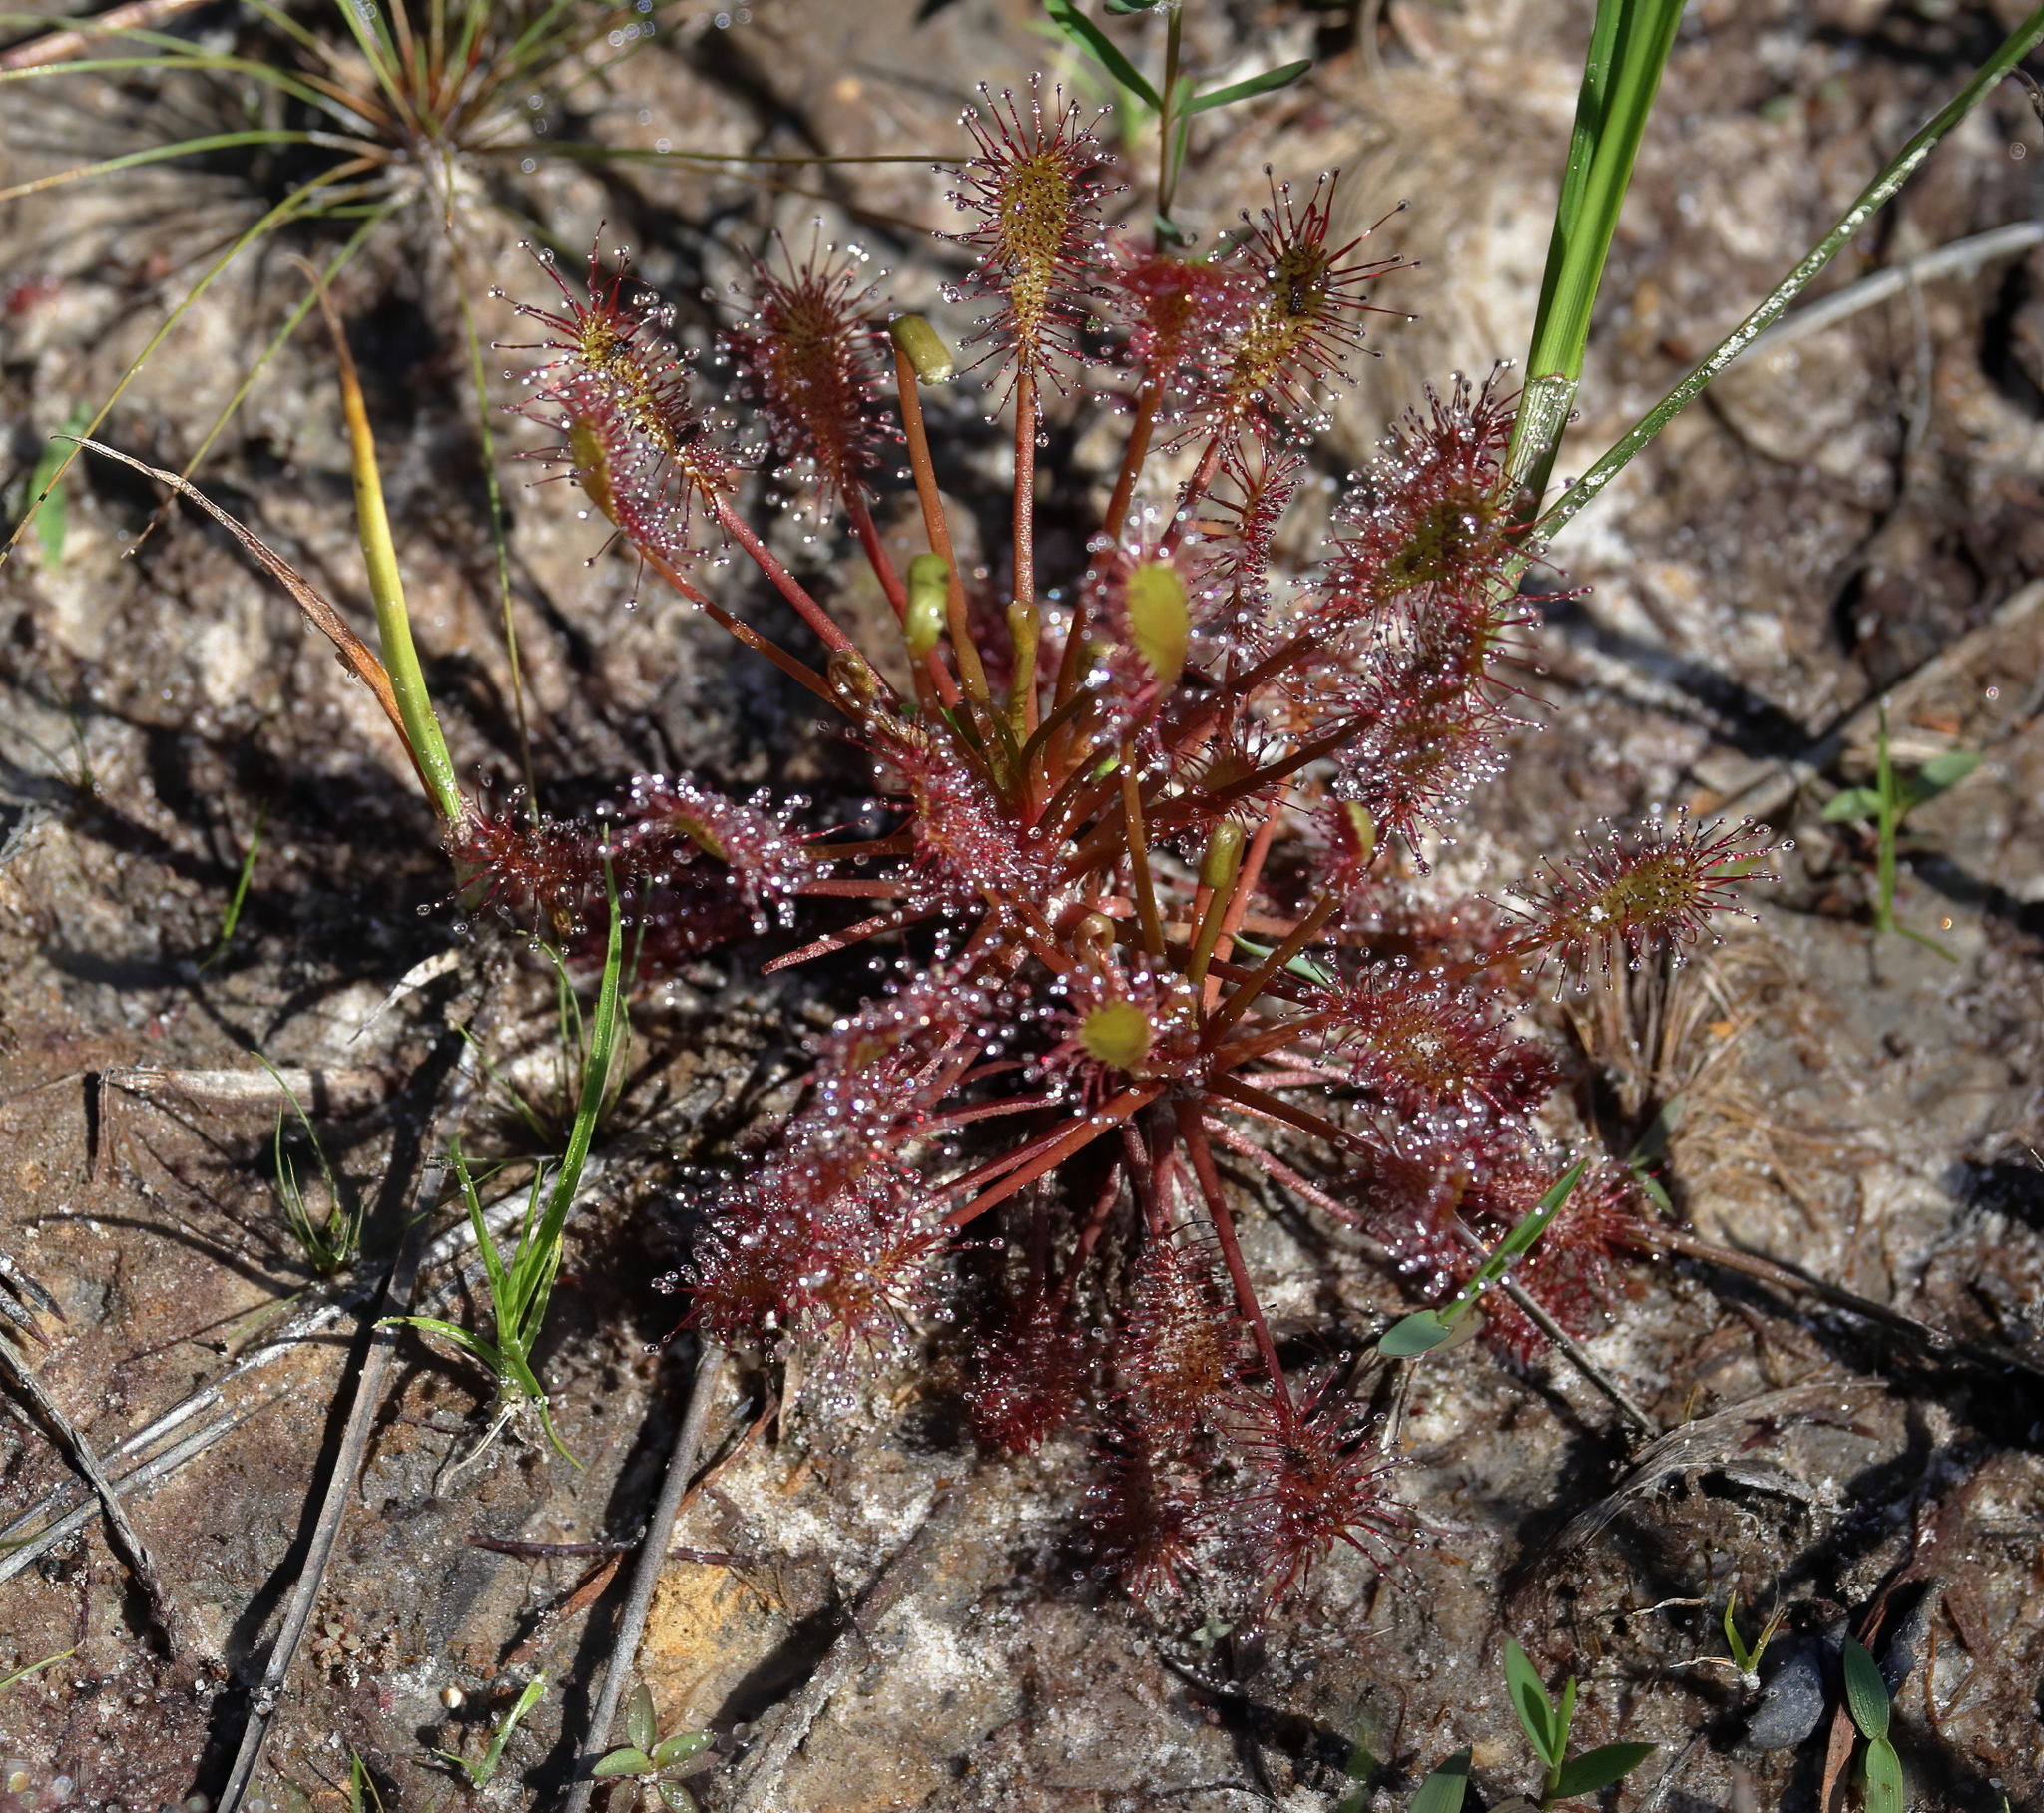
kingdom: Plantae
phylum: Tracheophyta
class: Magnoliopsida
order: Caryophyllales
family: Droseraceae
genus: Drosera
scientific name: Drosera intermedia
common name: Oblong-leaved sundew
